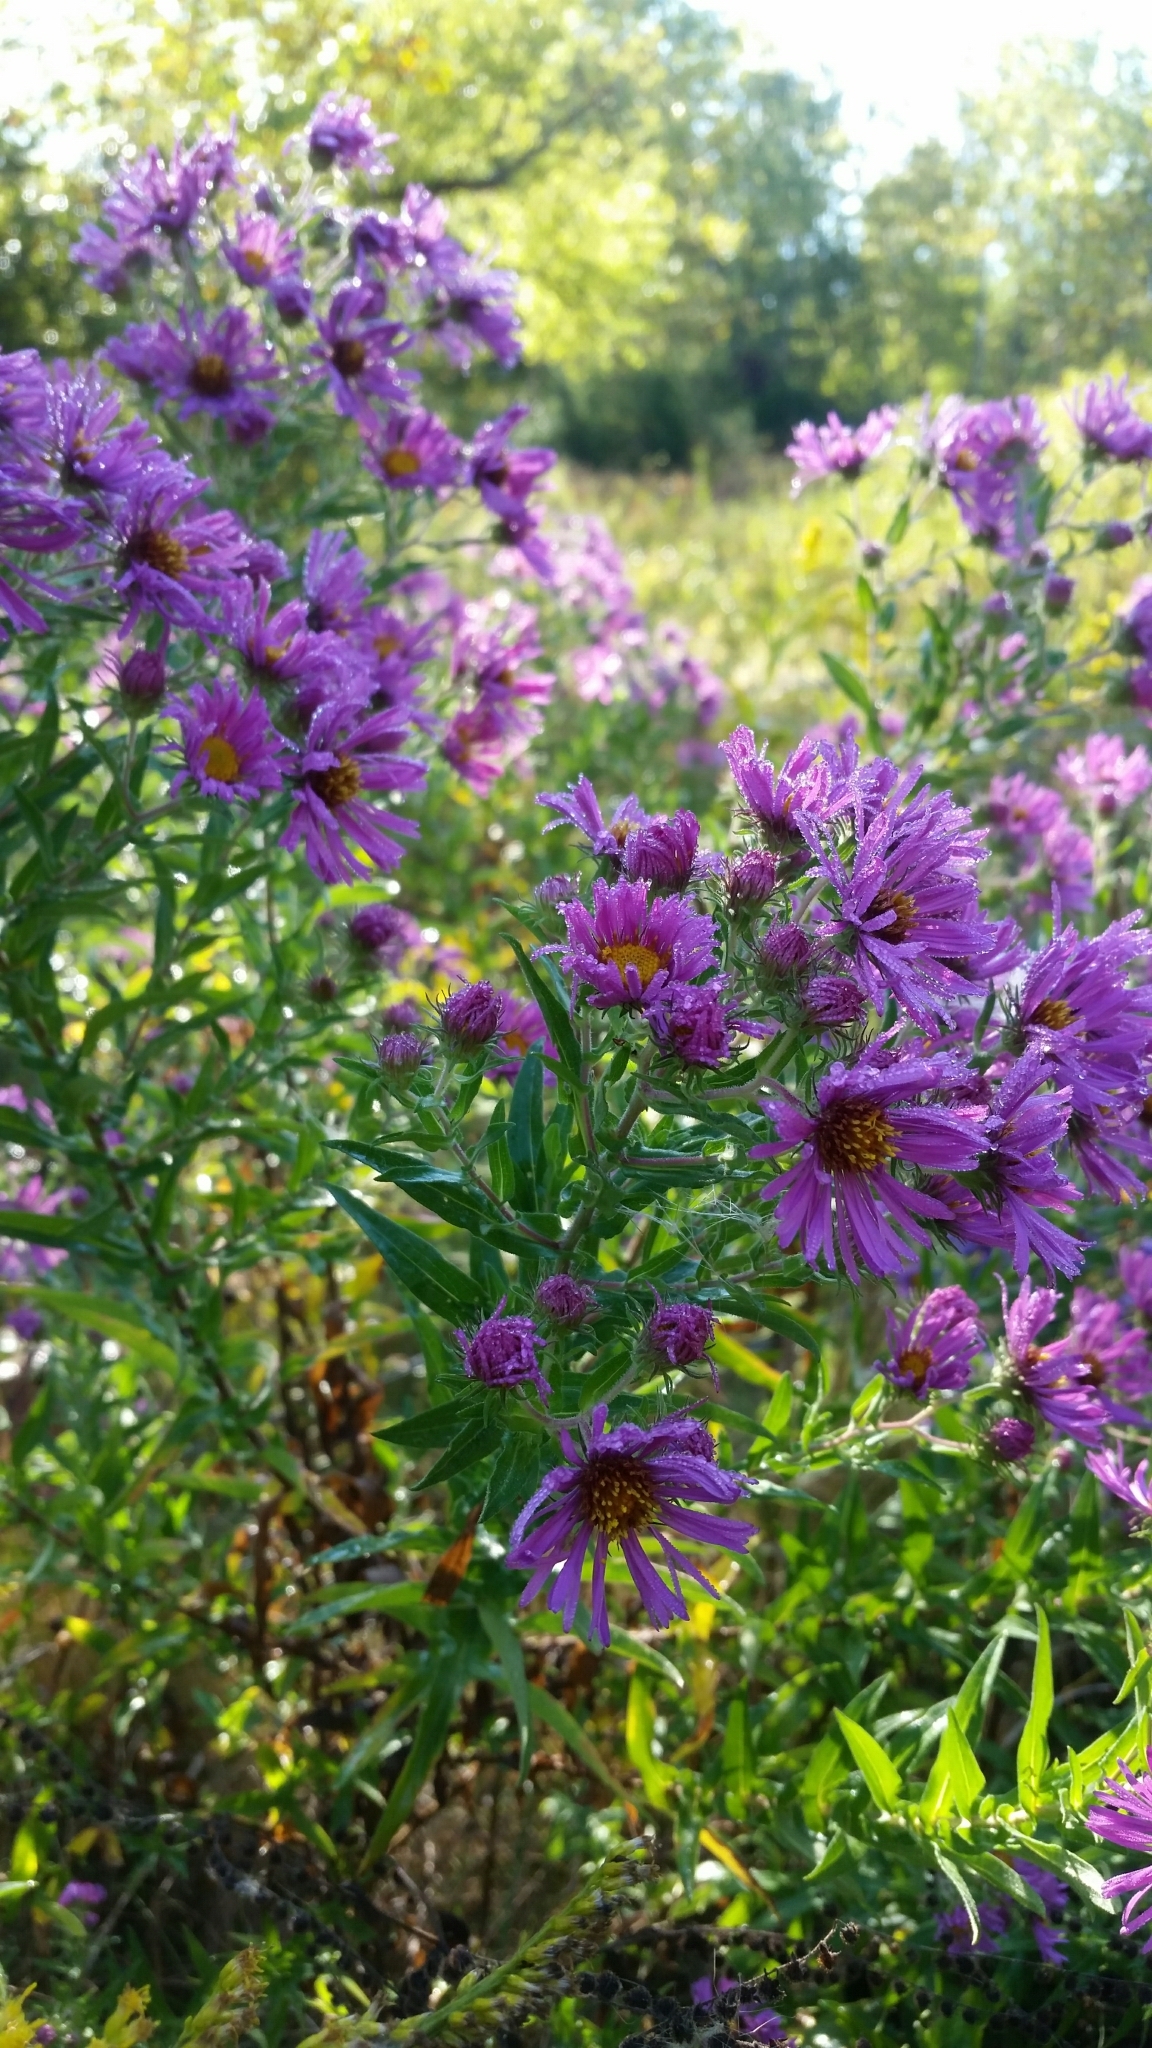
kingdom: Plantae
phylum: Tracheophyta
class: Magnoliopsida
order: Asterales
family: Asteraceae
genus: Symphyotrichum
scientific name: Symphyotrichum novae-angliae
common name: Michaelmas daisy
